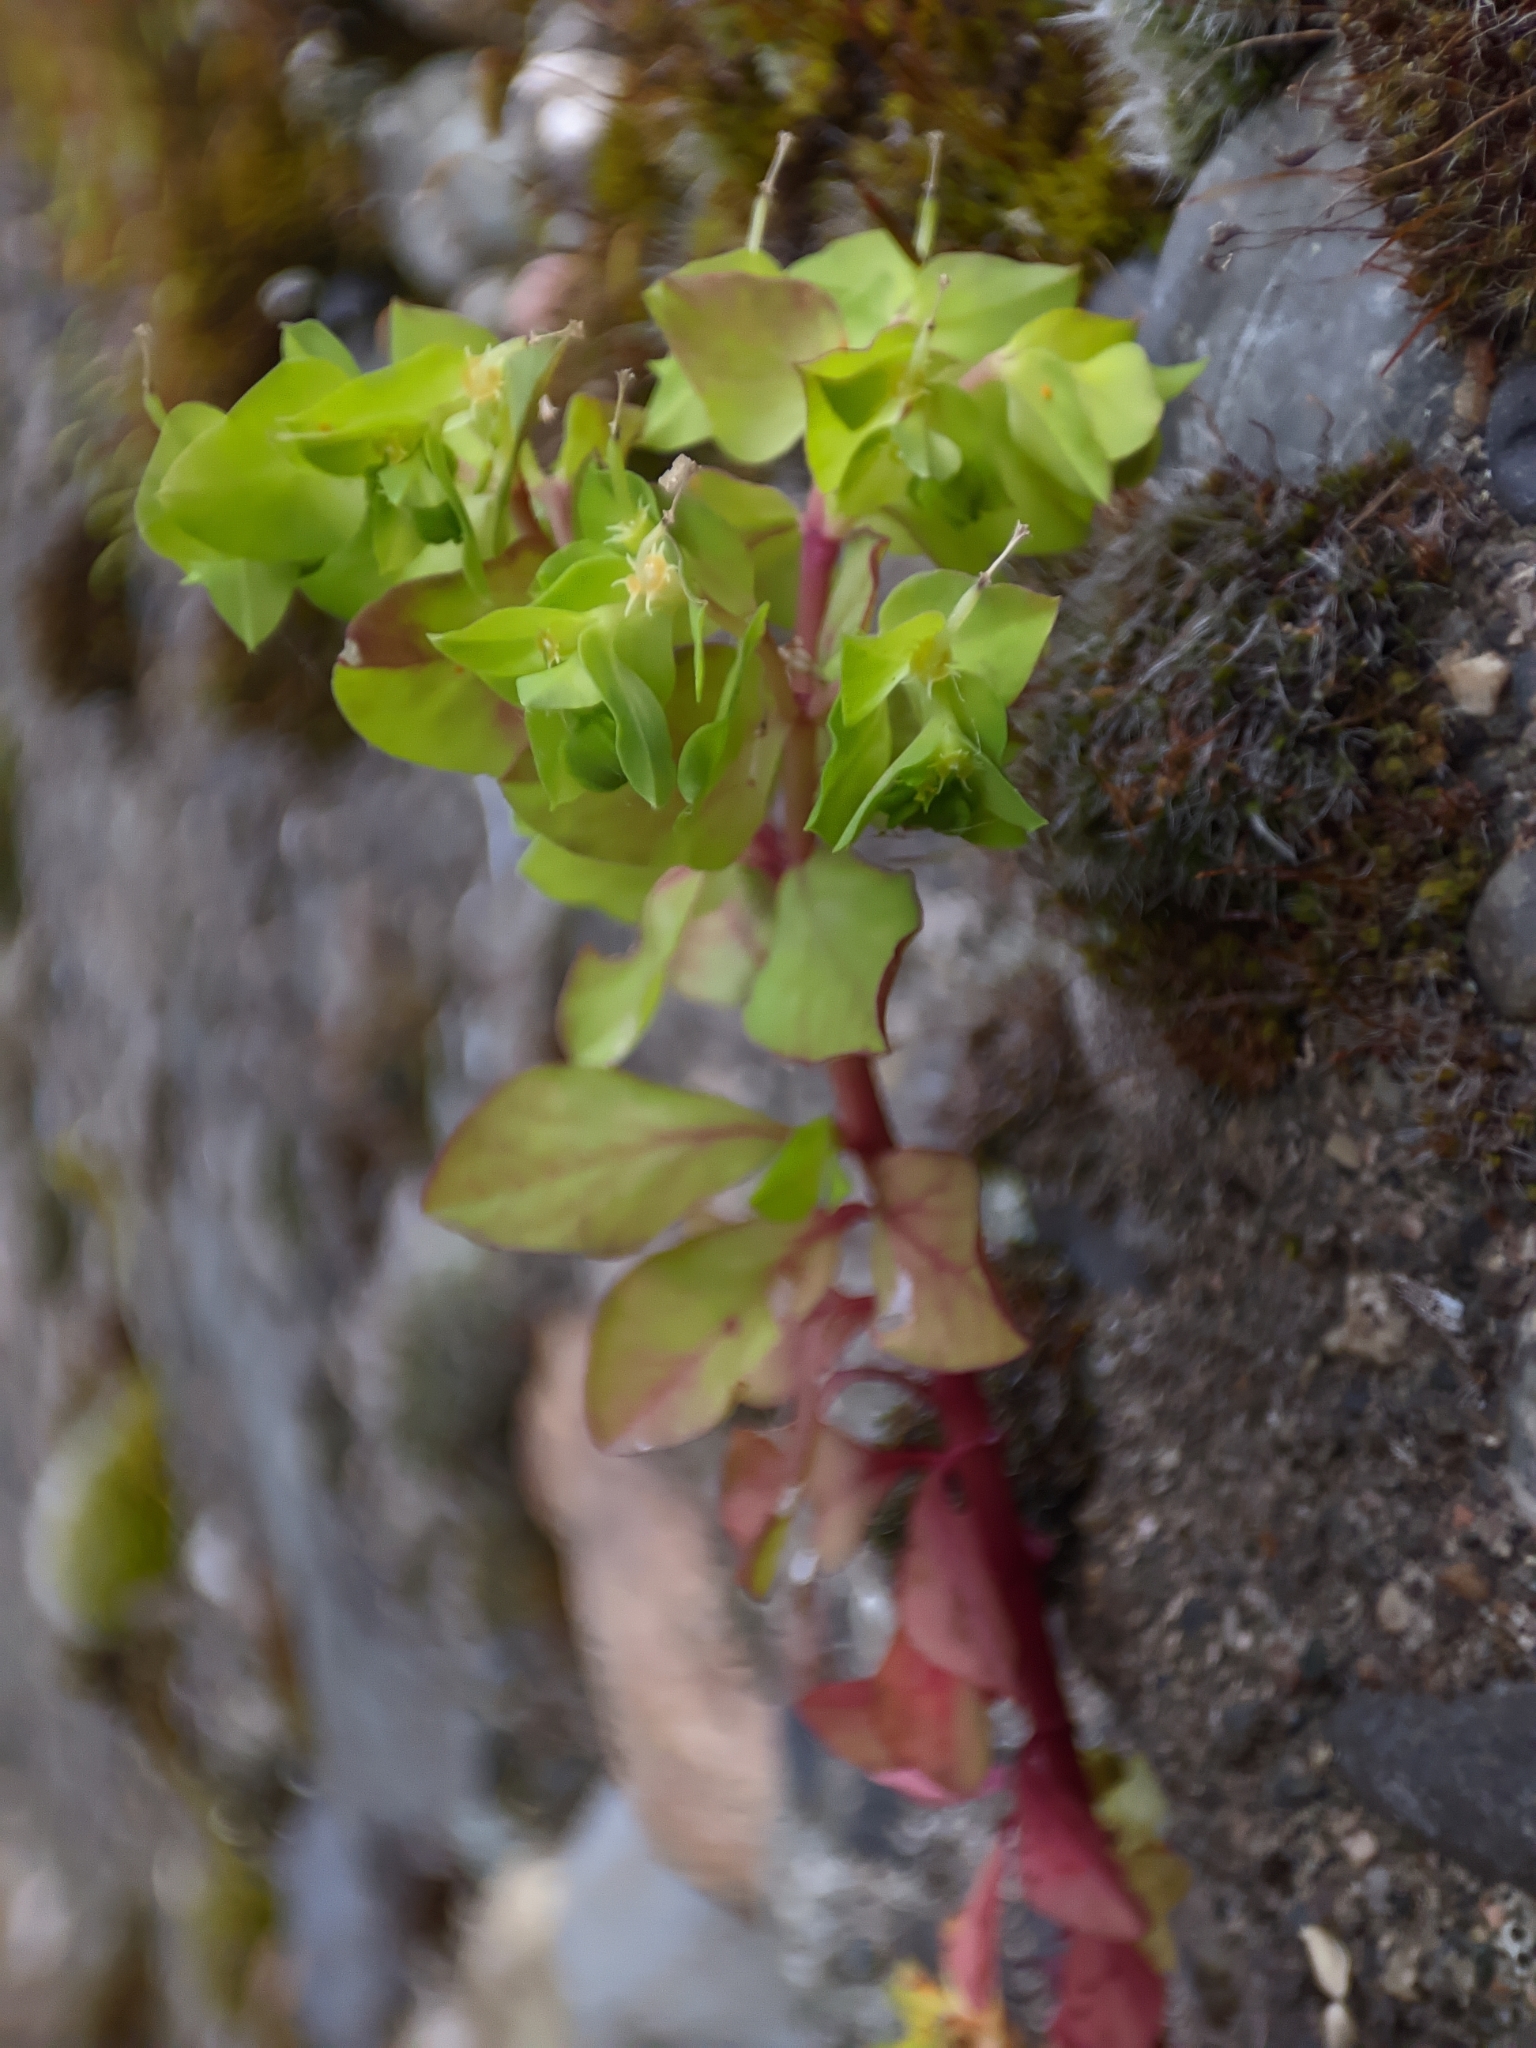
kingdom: Plantae
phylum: Tracheophyta
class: Magnoliopsida
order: Malpighiales
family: Euphorbiaceae
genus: Euphorbia
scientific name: Euphorbia peplus
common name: Petty spurge
